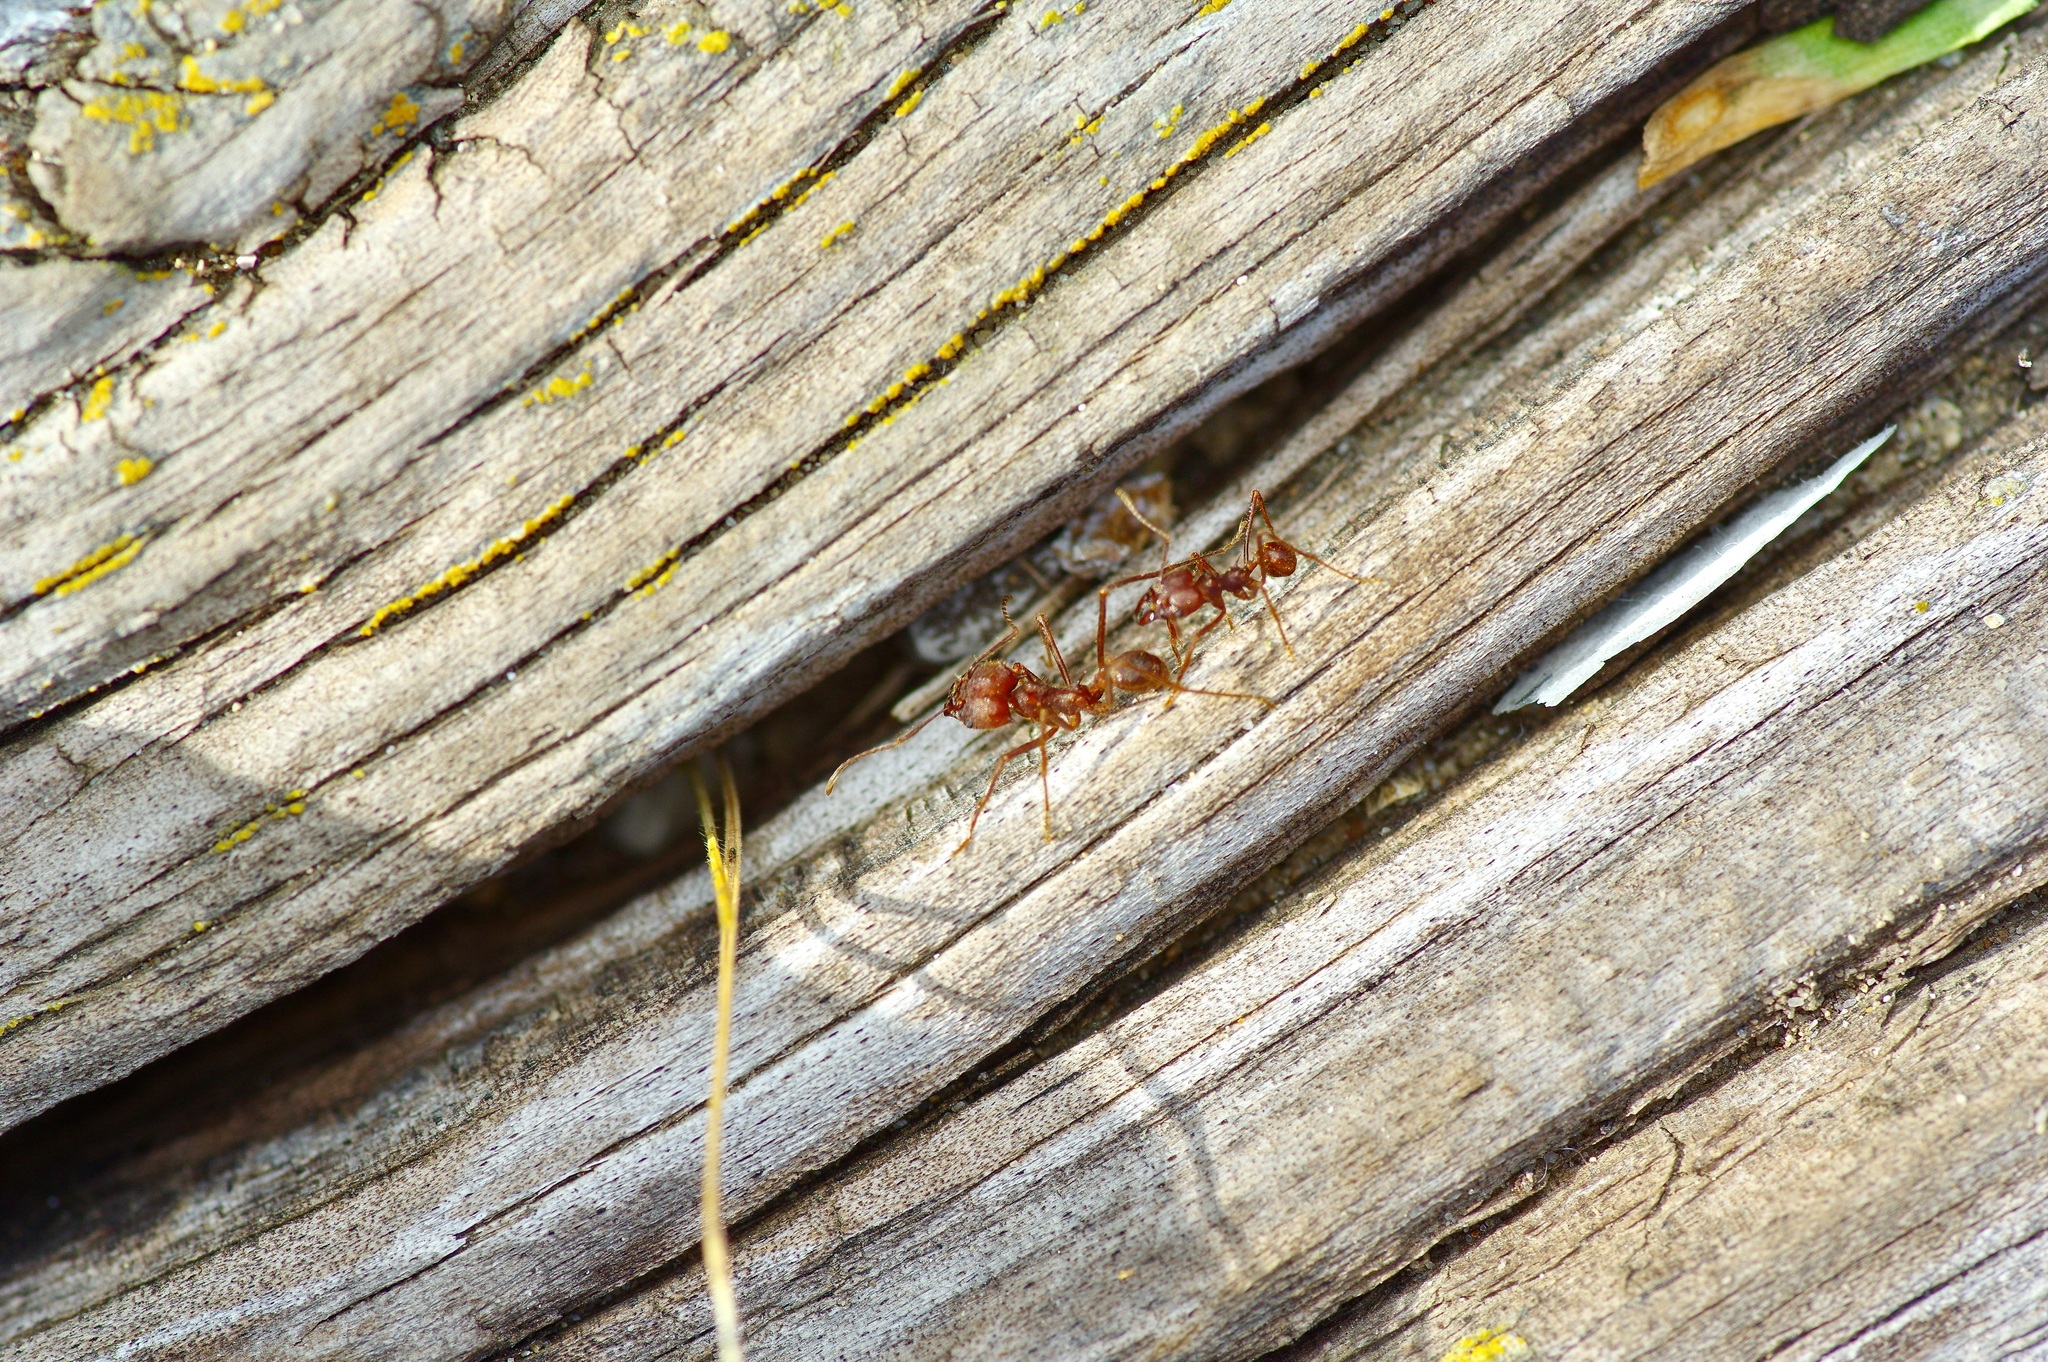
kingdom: Animalia
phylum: Arthropoda
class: Insecta
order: Hymenoptera
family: Formicidae
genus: Atta
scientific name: Atta texana
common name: Texas leafcutting ant
